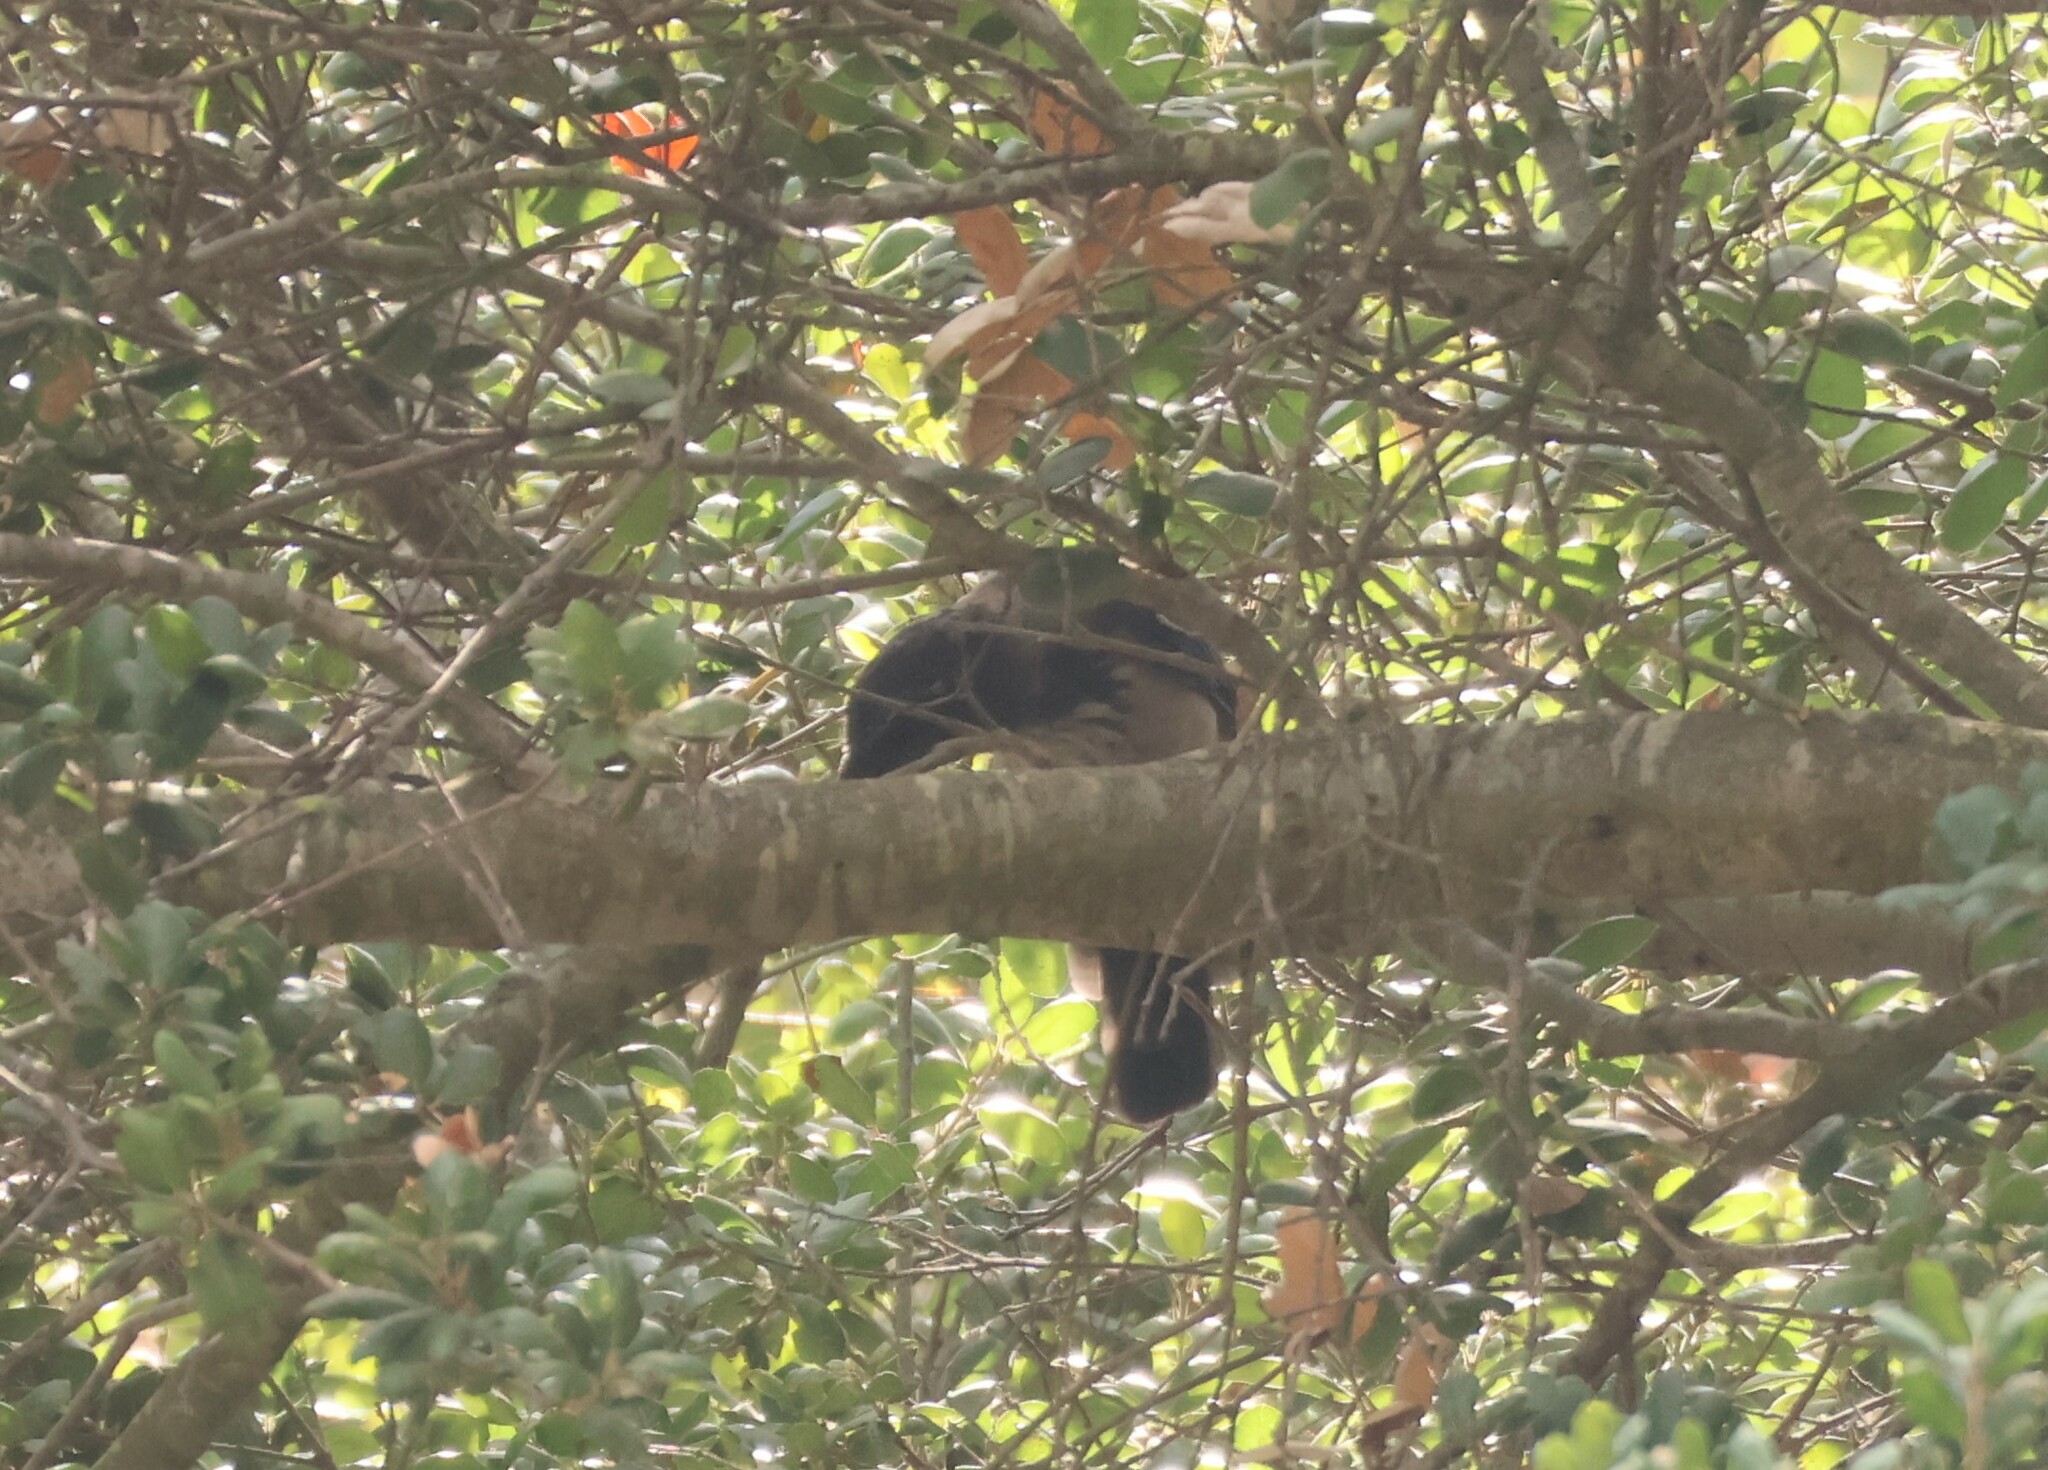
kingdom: Animalia
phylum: Chordata
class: Aves
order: Passeriformes
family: Corvidae
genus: Aphelocoma
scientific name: Aphelocoma californica
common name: California scrub-jay
